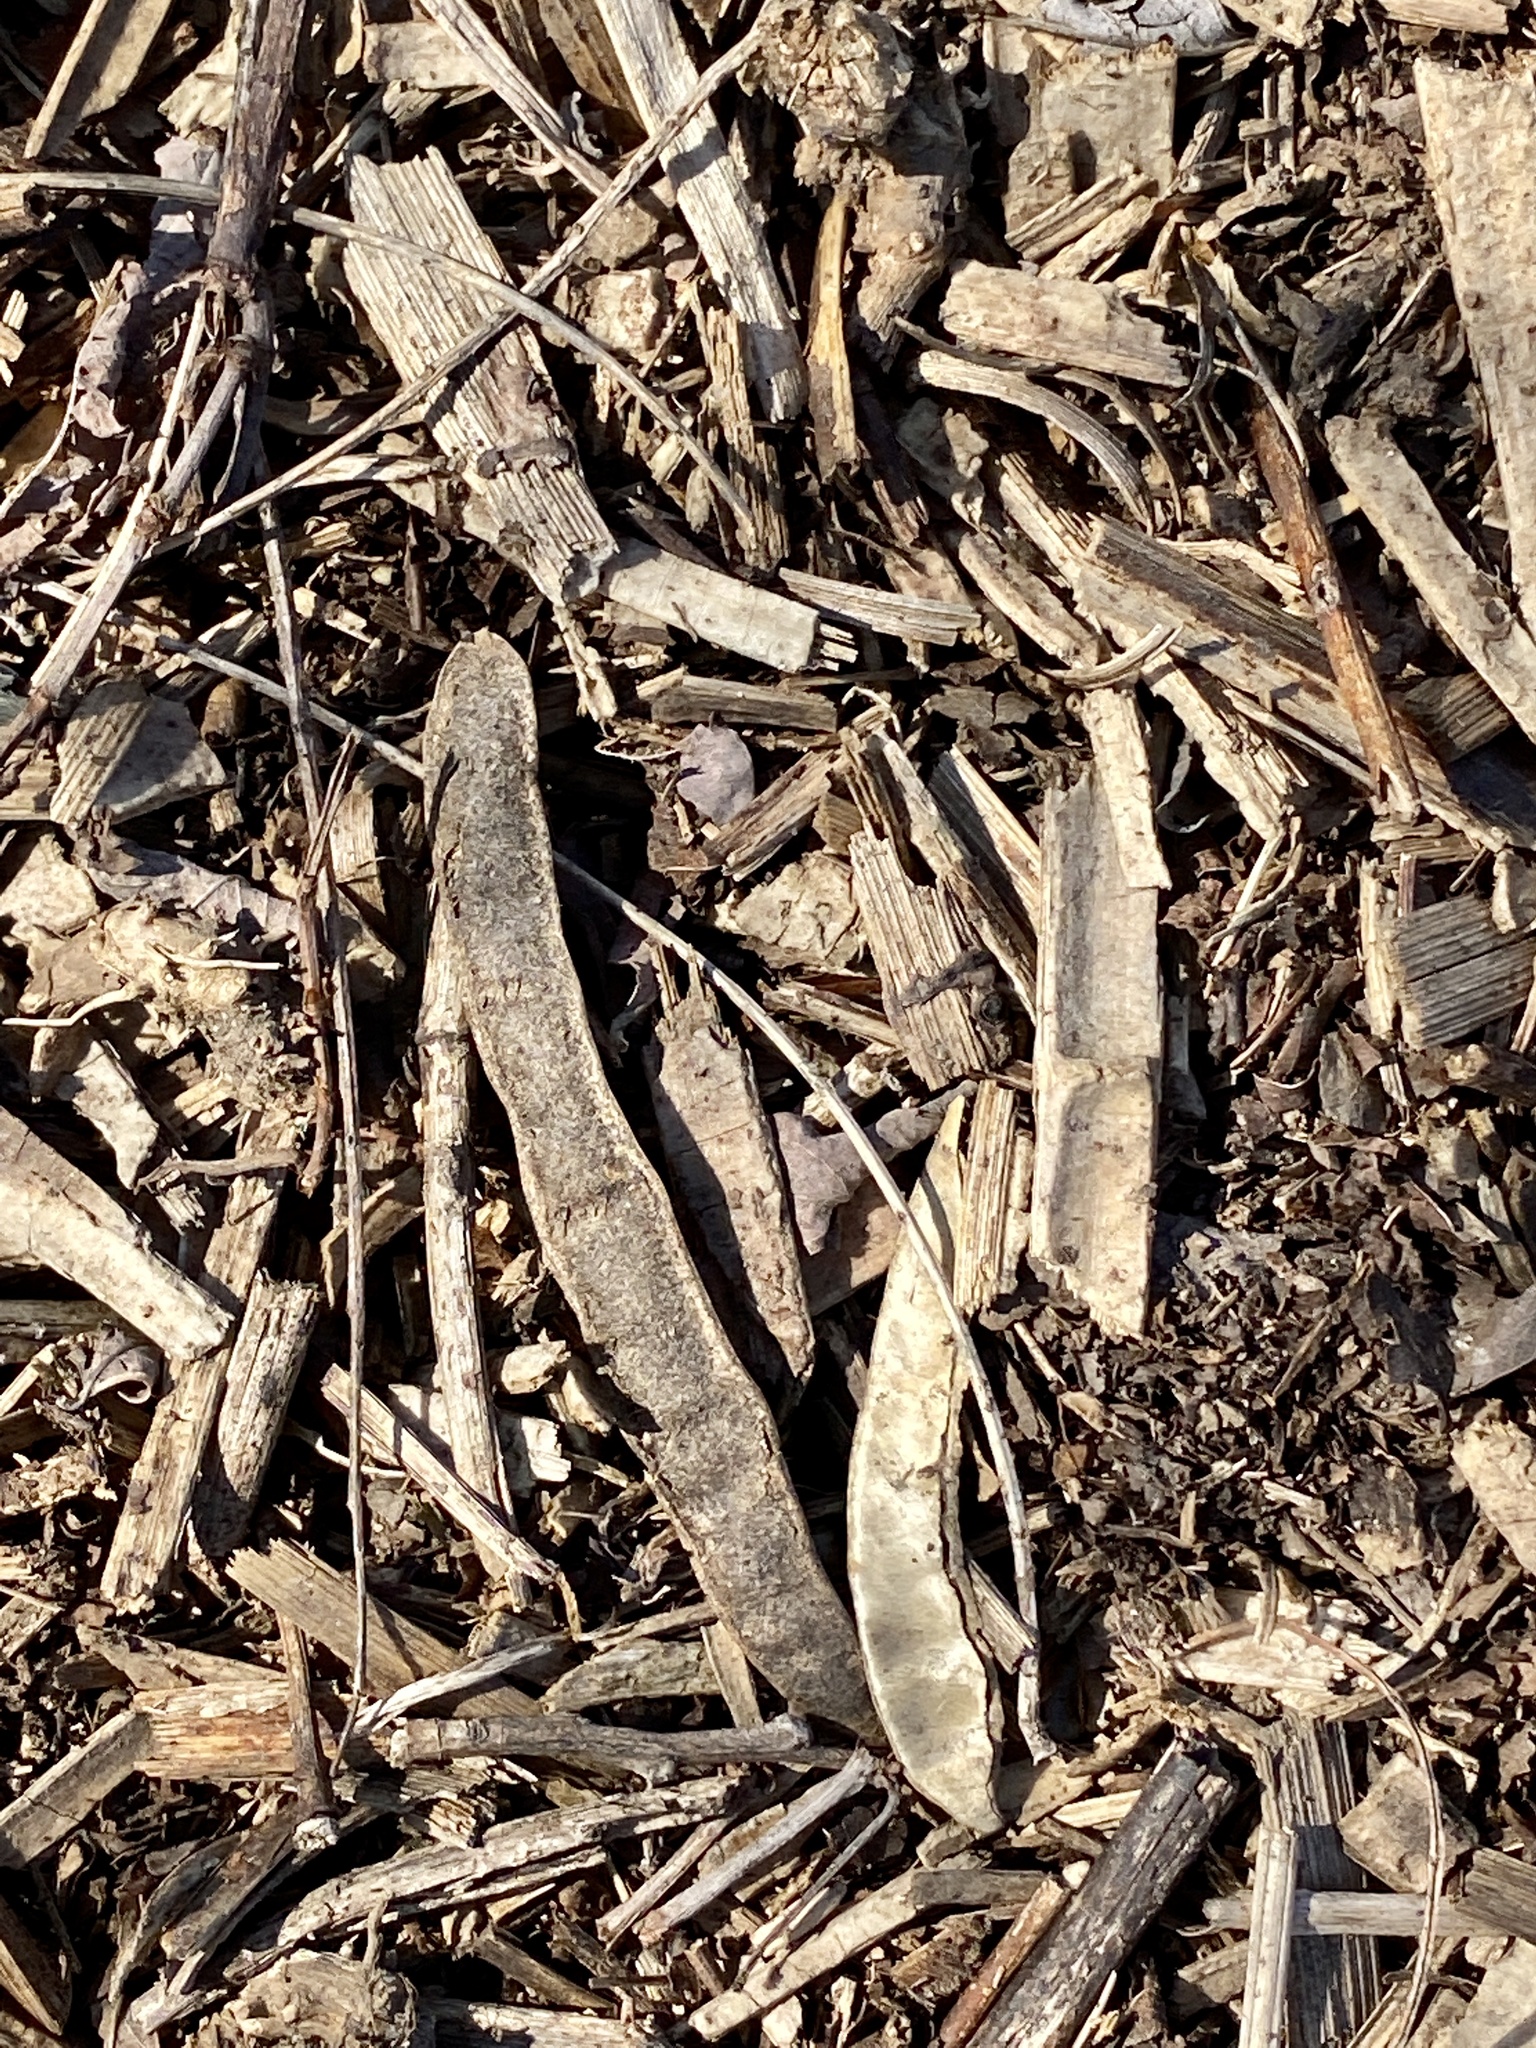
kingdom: Plantae
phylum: Tracheophyta
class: Magnoliopsida
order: Fabales
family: Fabaceae
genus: Robinia
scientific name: Robinia pseudoacacia
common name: Black locust
